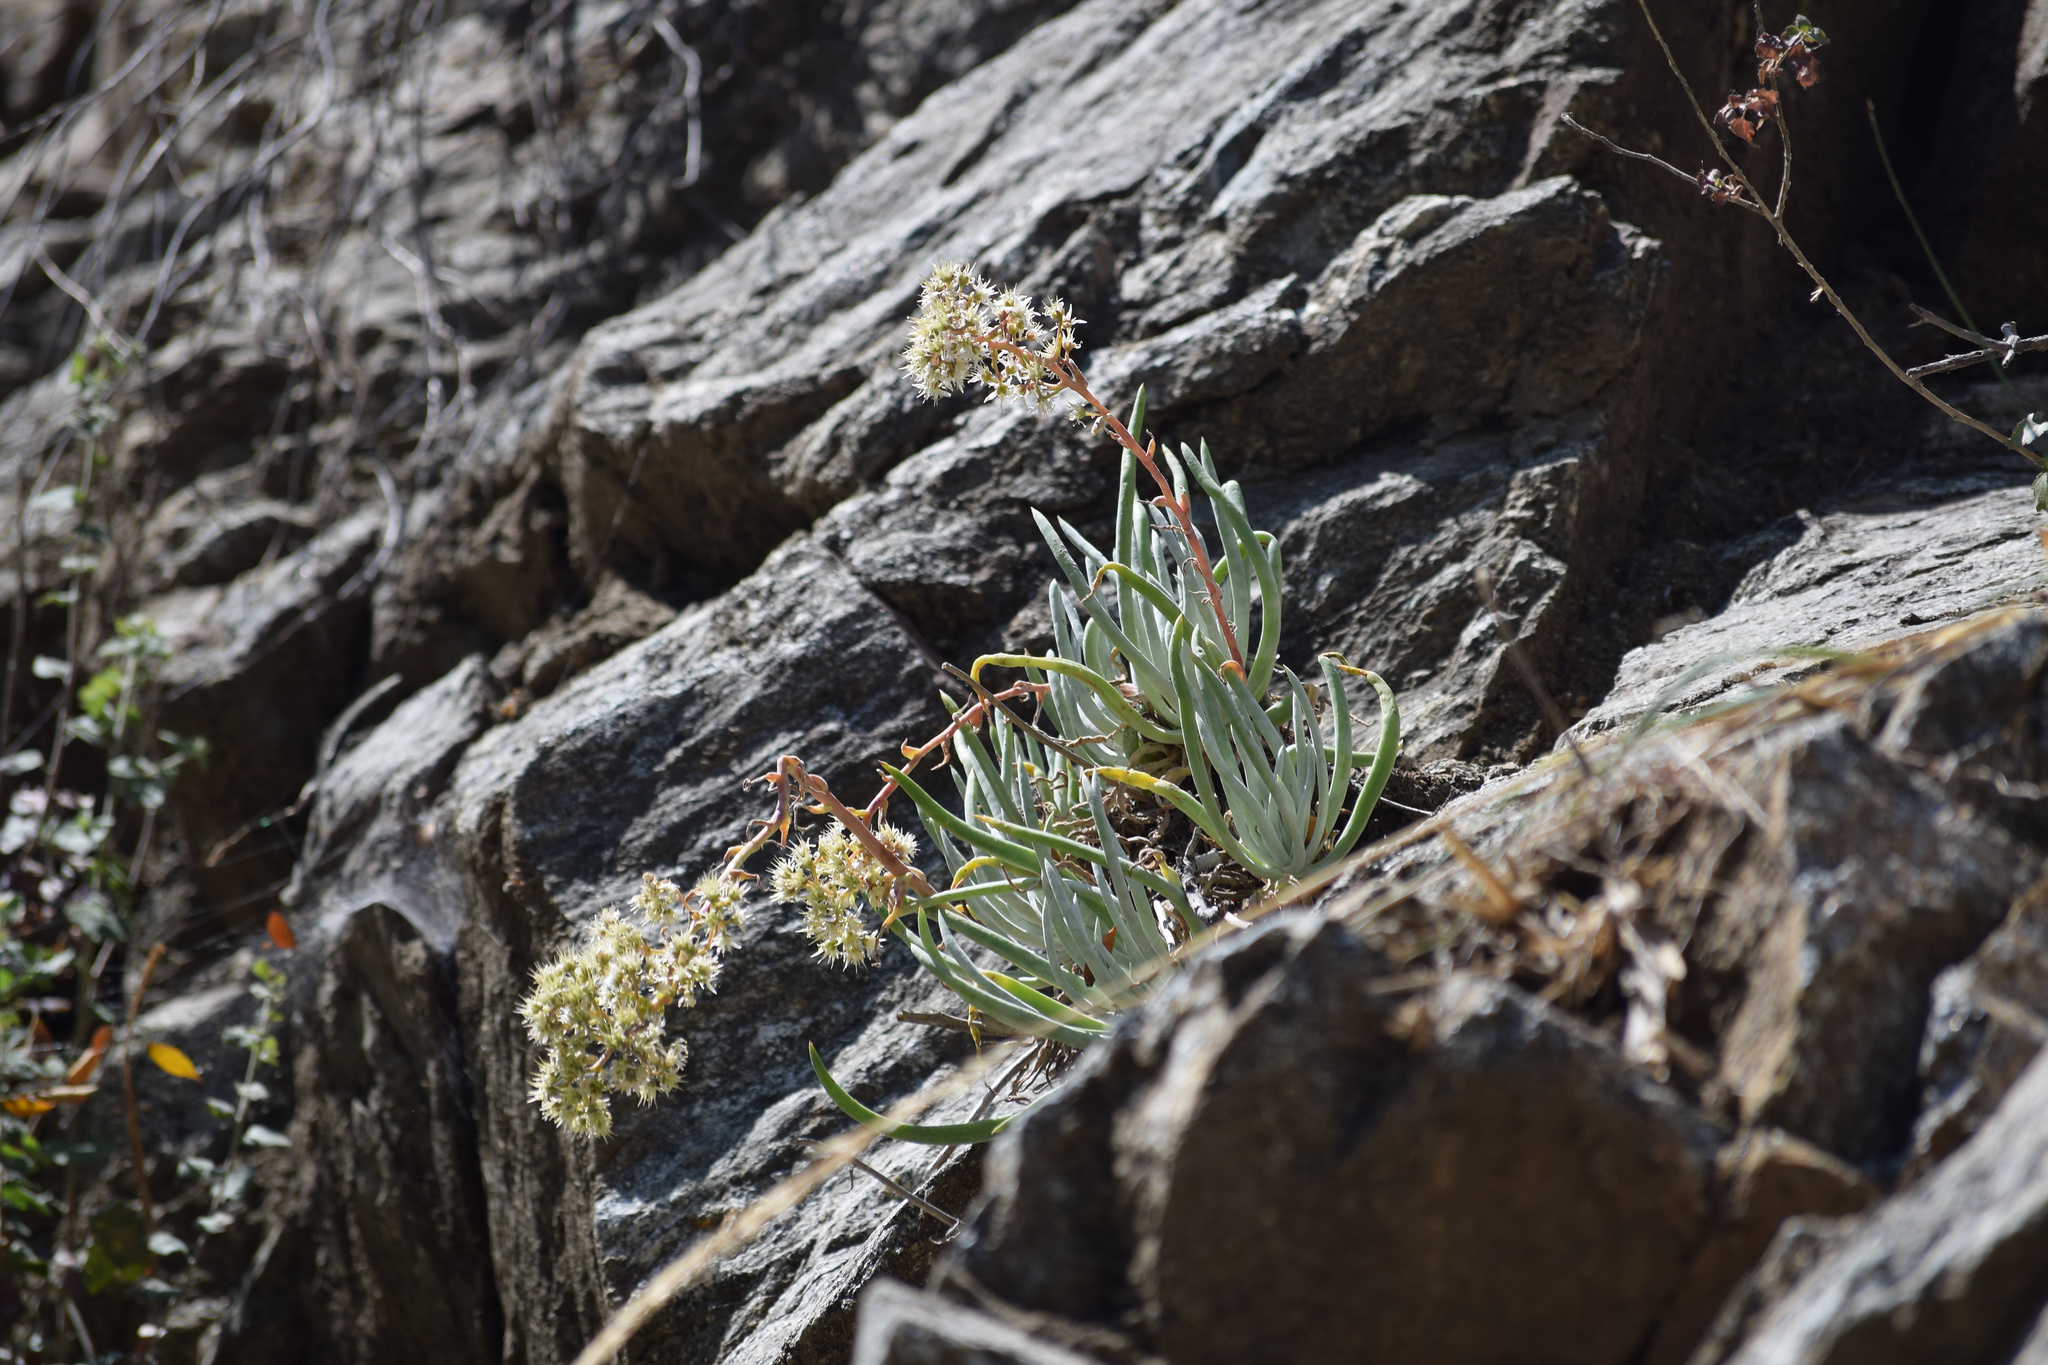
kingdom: Plantae
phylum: Tracheophyta
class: Magnoliopsida
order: Saxifragales
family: Crassulaceae
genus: Dudleya
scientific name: Dudleya densiflora
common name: San gabriel mountains dudleya
